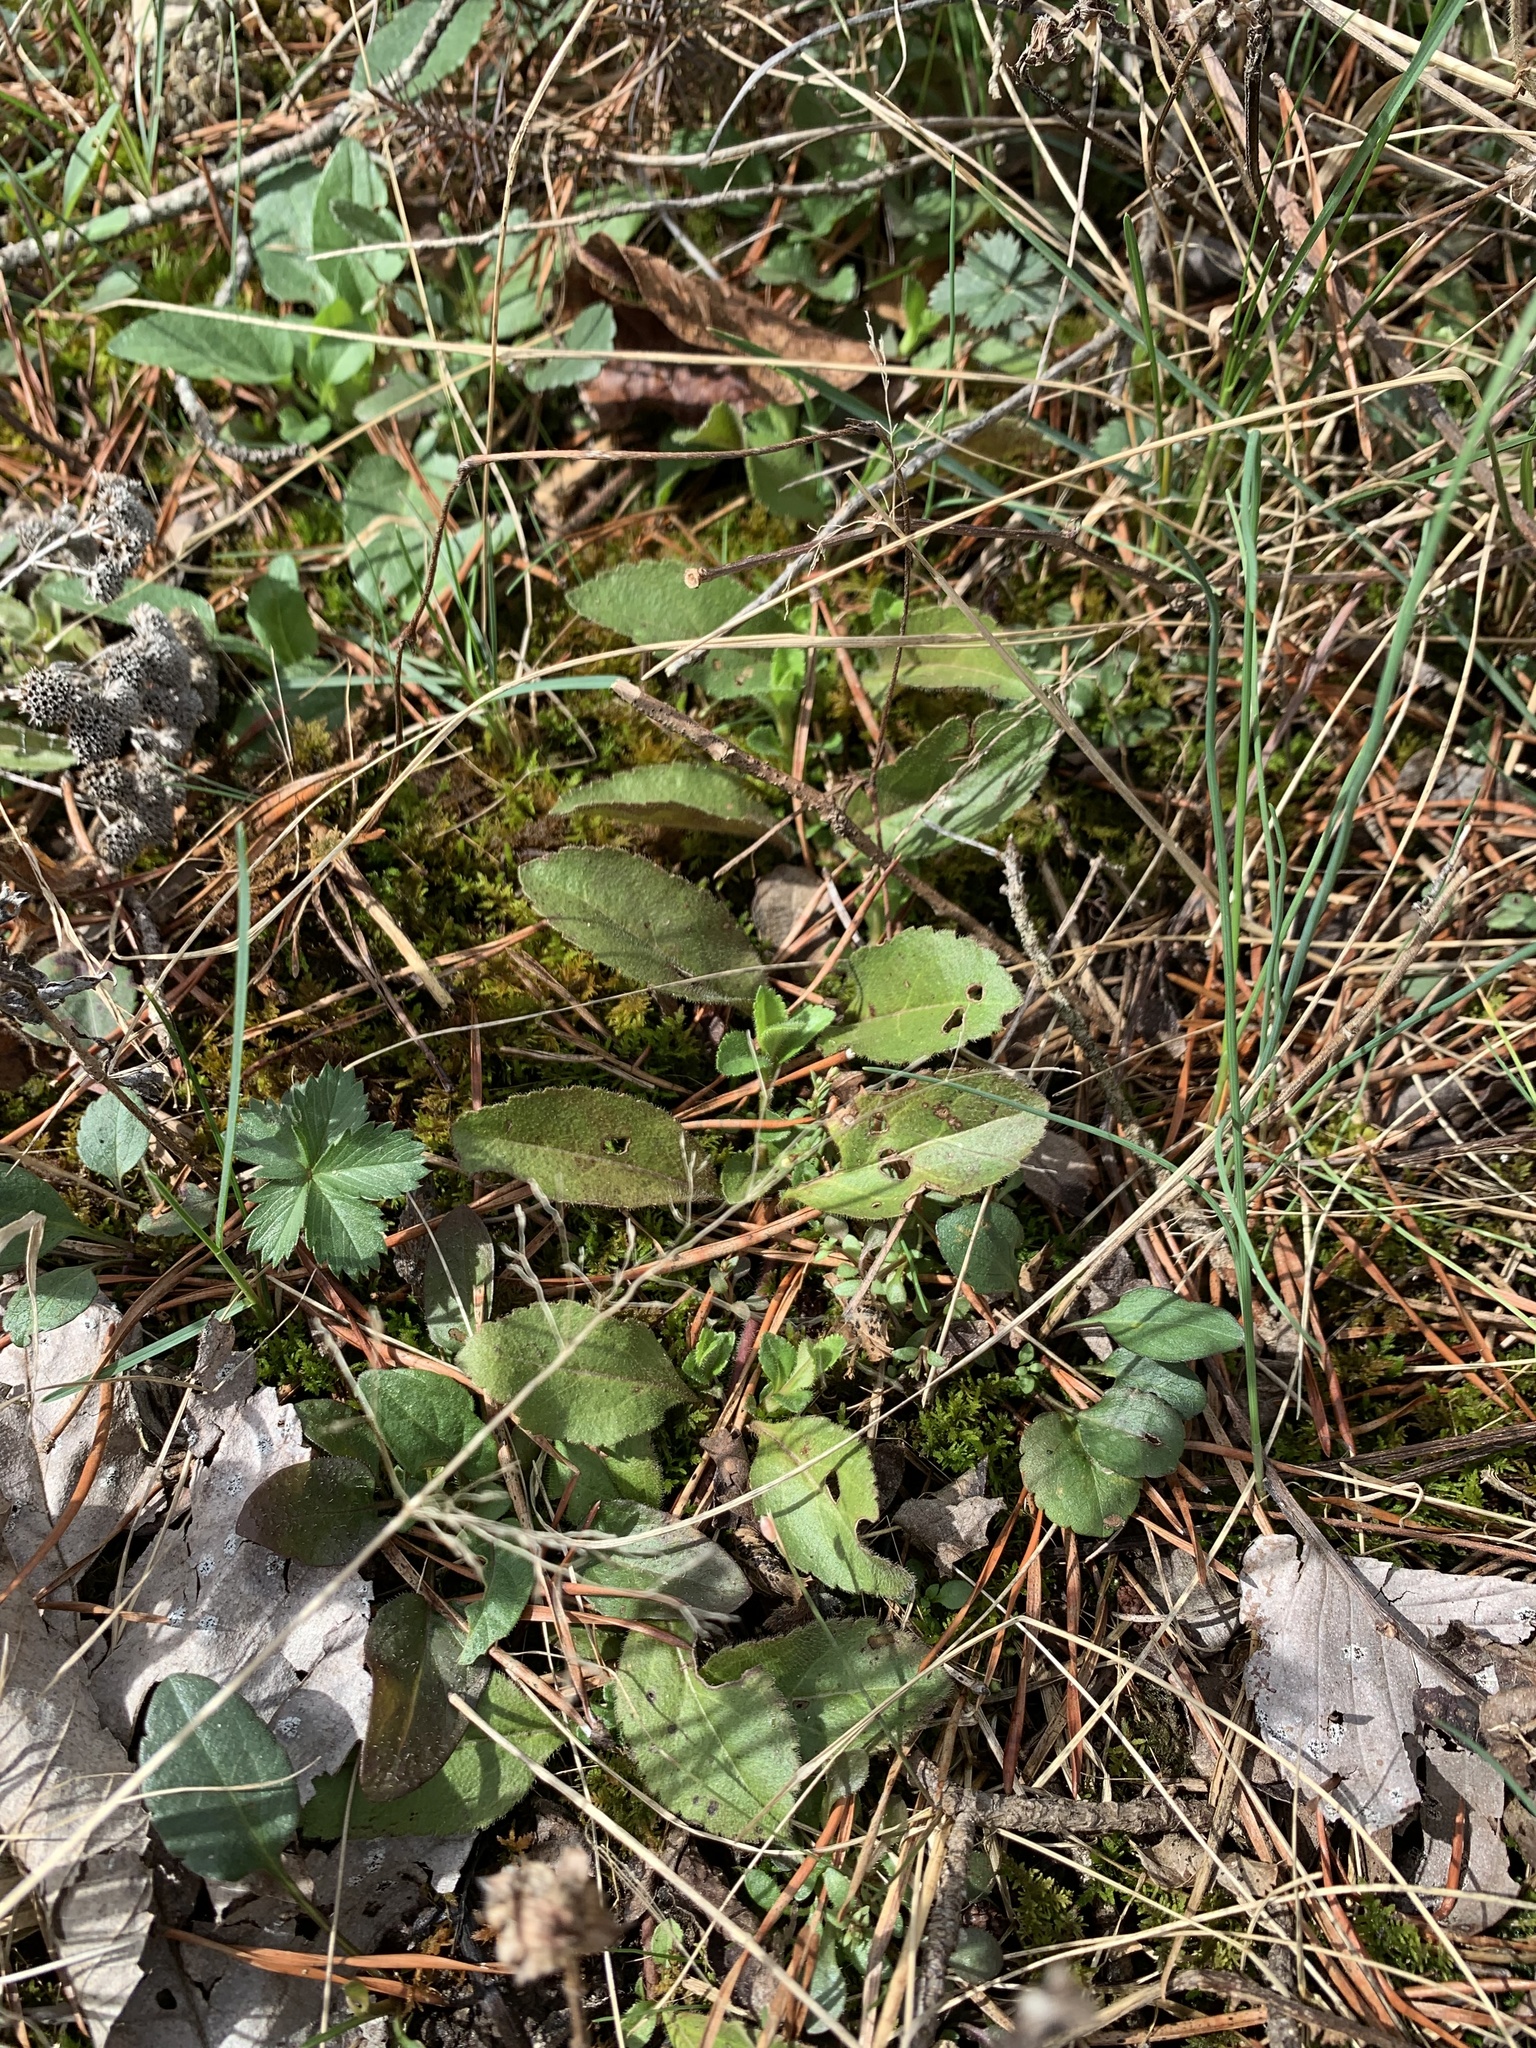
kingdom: Plantae
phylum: Tracheophyta
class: Magnoliopsida
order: Lamiales
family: Plantaginaceae
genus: Veronica
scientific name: Veronica officinalis
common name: Common speedwell
